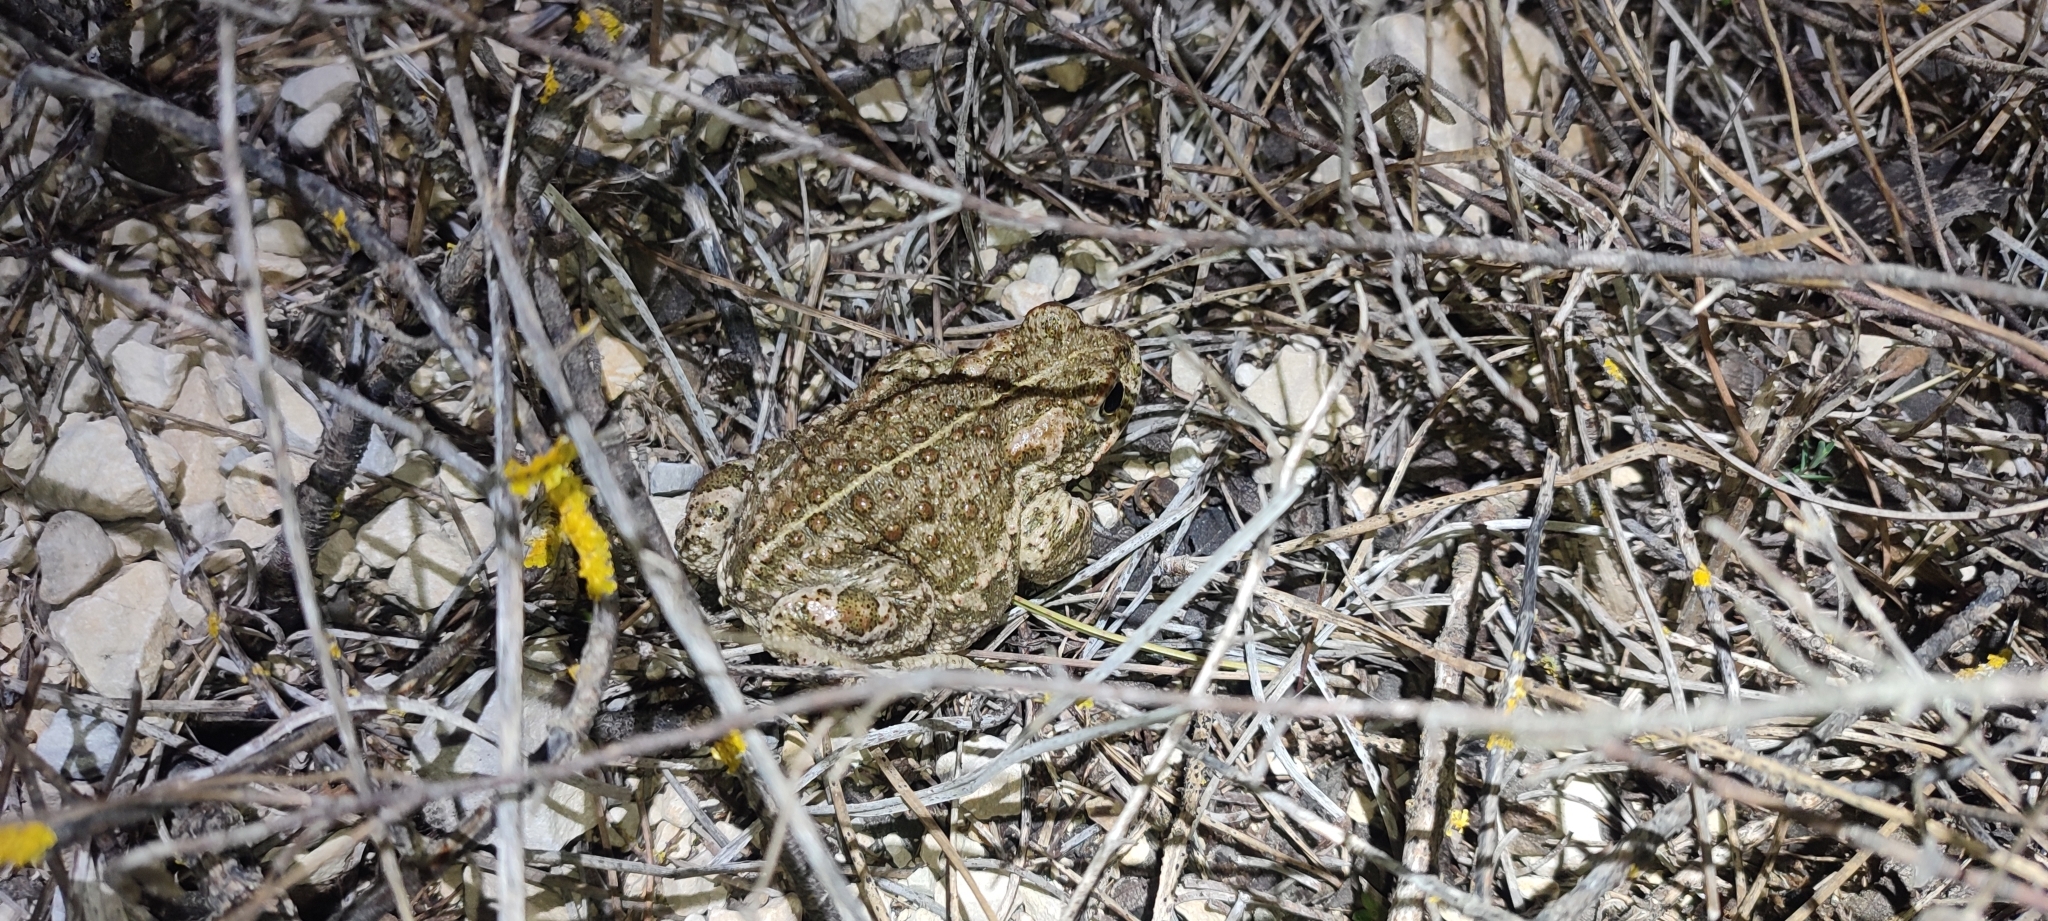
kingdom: Animalia
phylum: Chordata
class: Amphibia
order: Anura
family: Bufonidae
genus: Epidalea
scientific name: Epidalea calamita
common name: Natterjack toad
